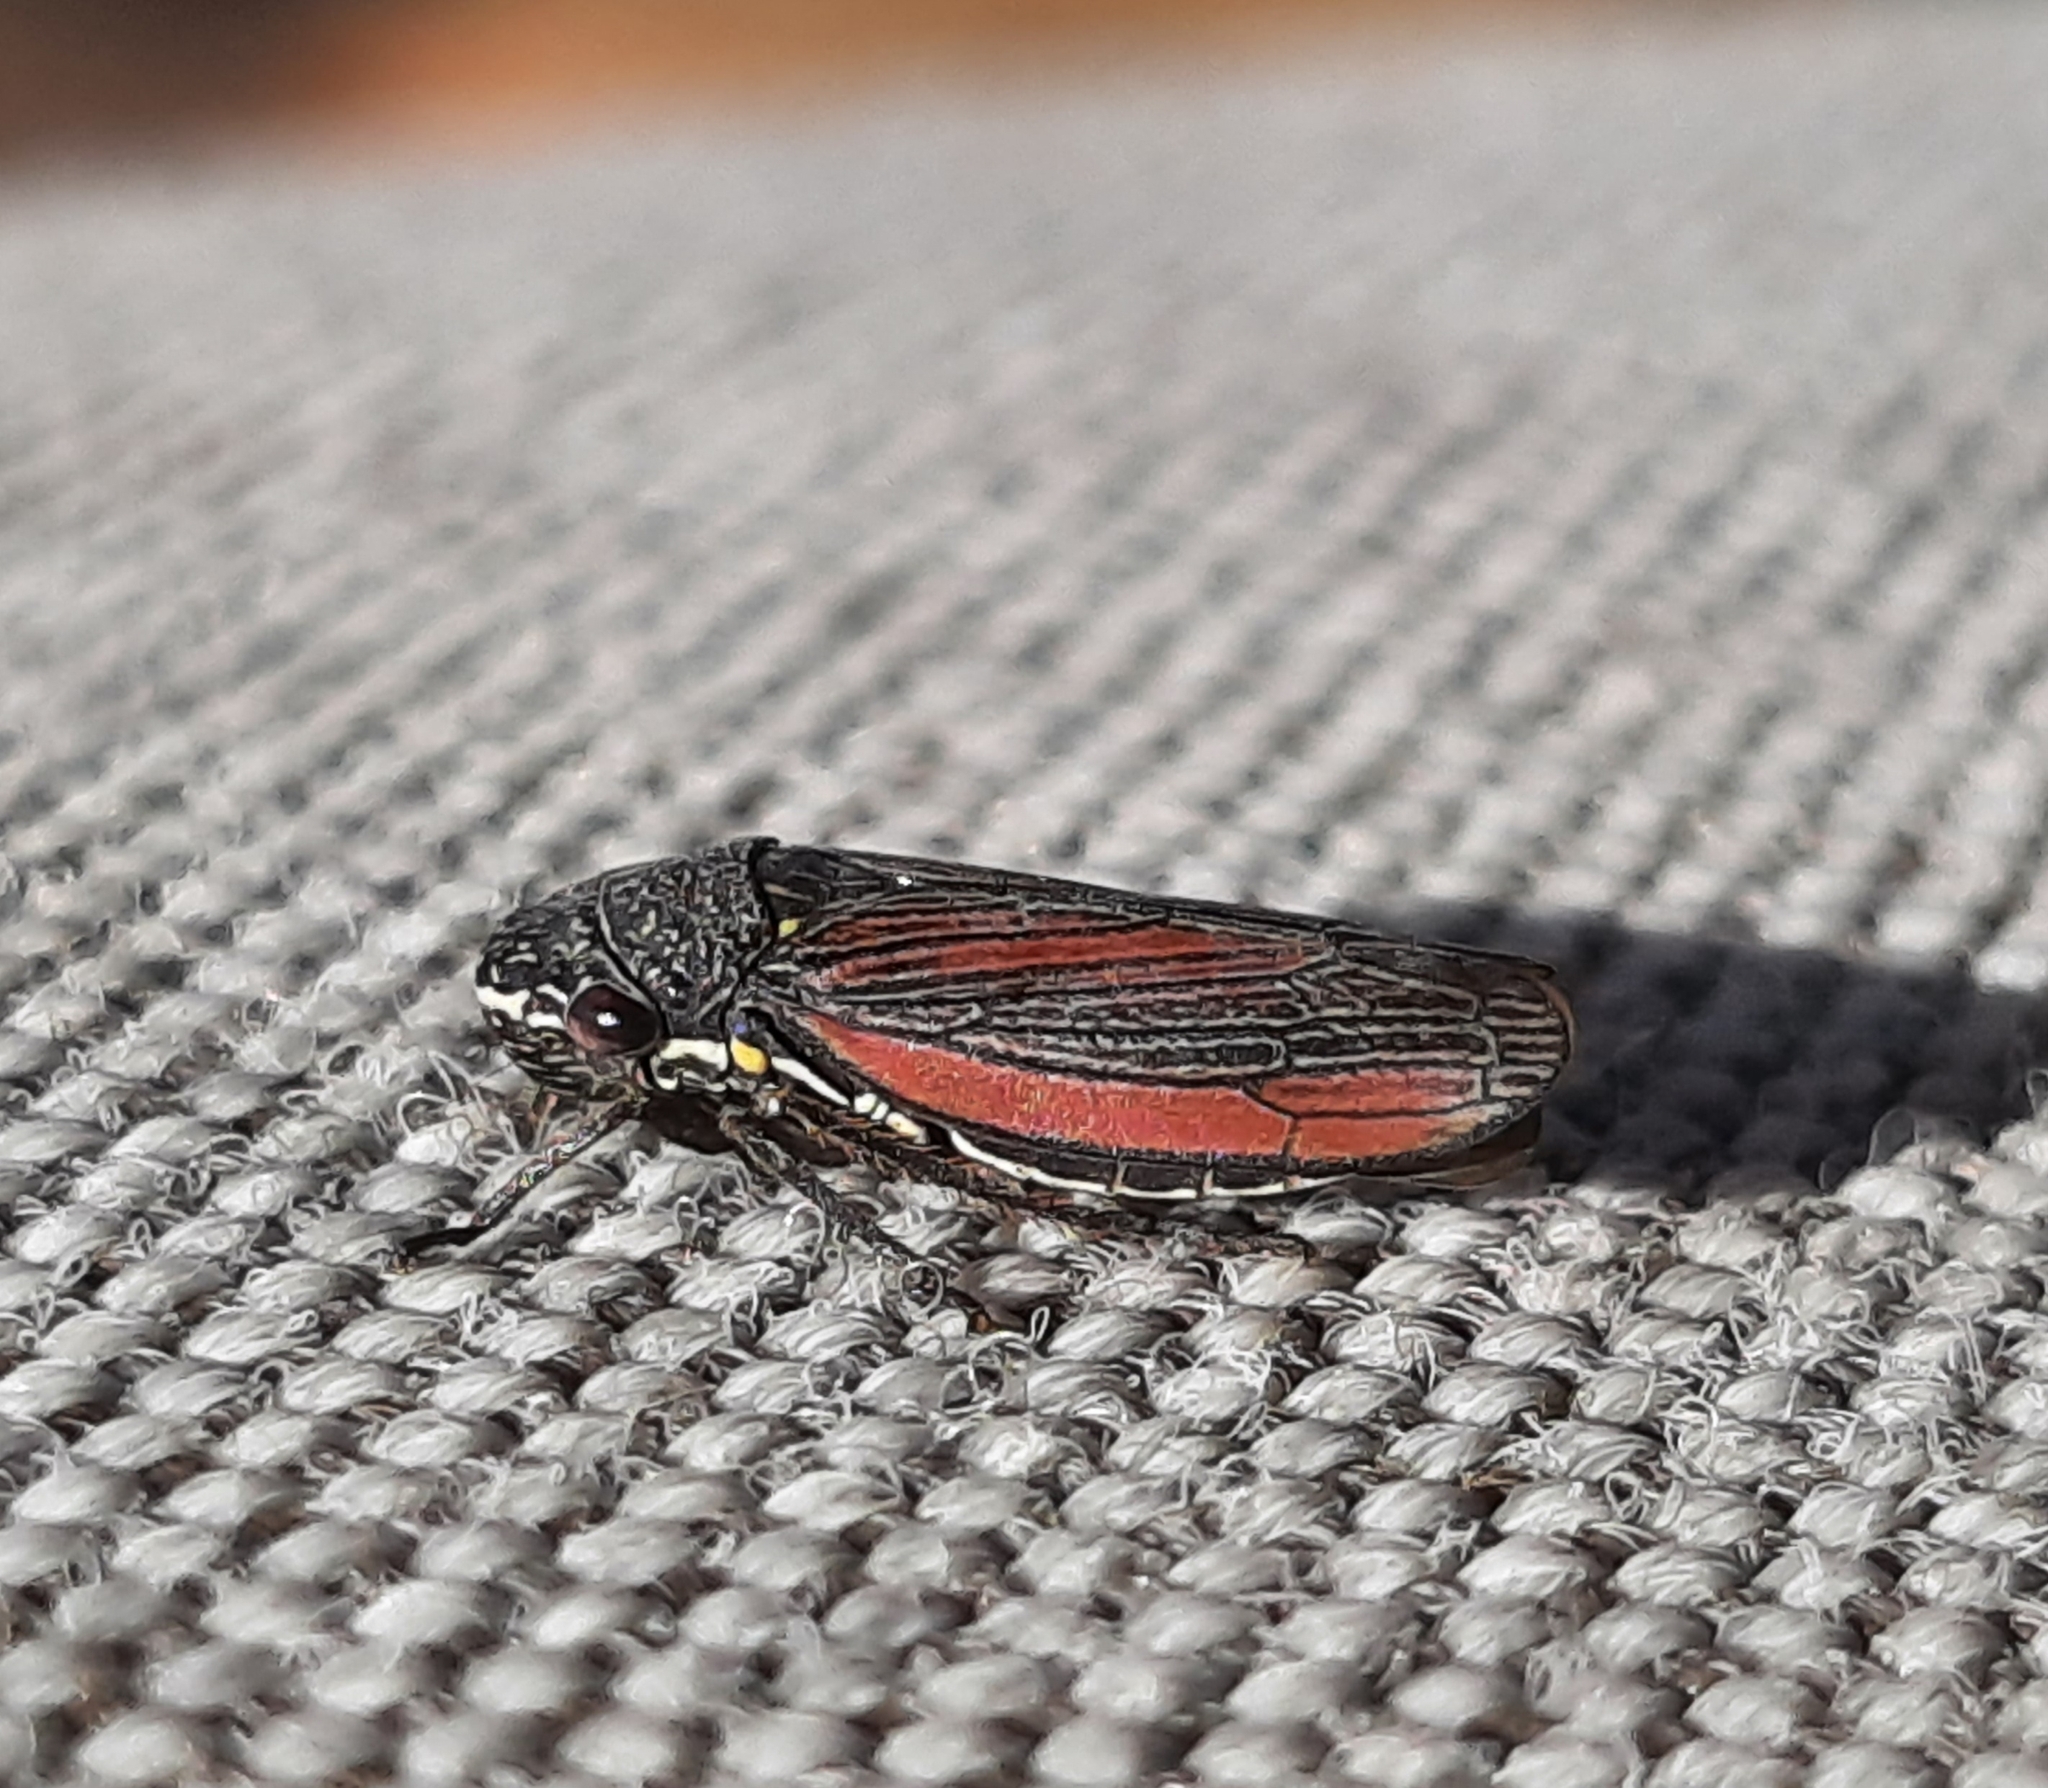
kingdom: Animalia
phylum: Arthropoda
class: Insecta
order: Hemiptera
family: Cicadellidae
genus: Cuerna
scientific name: Cuerna striata
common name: Striped leafhopper
